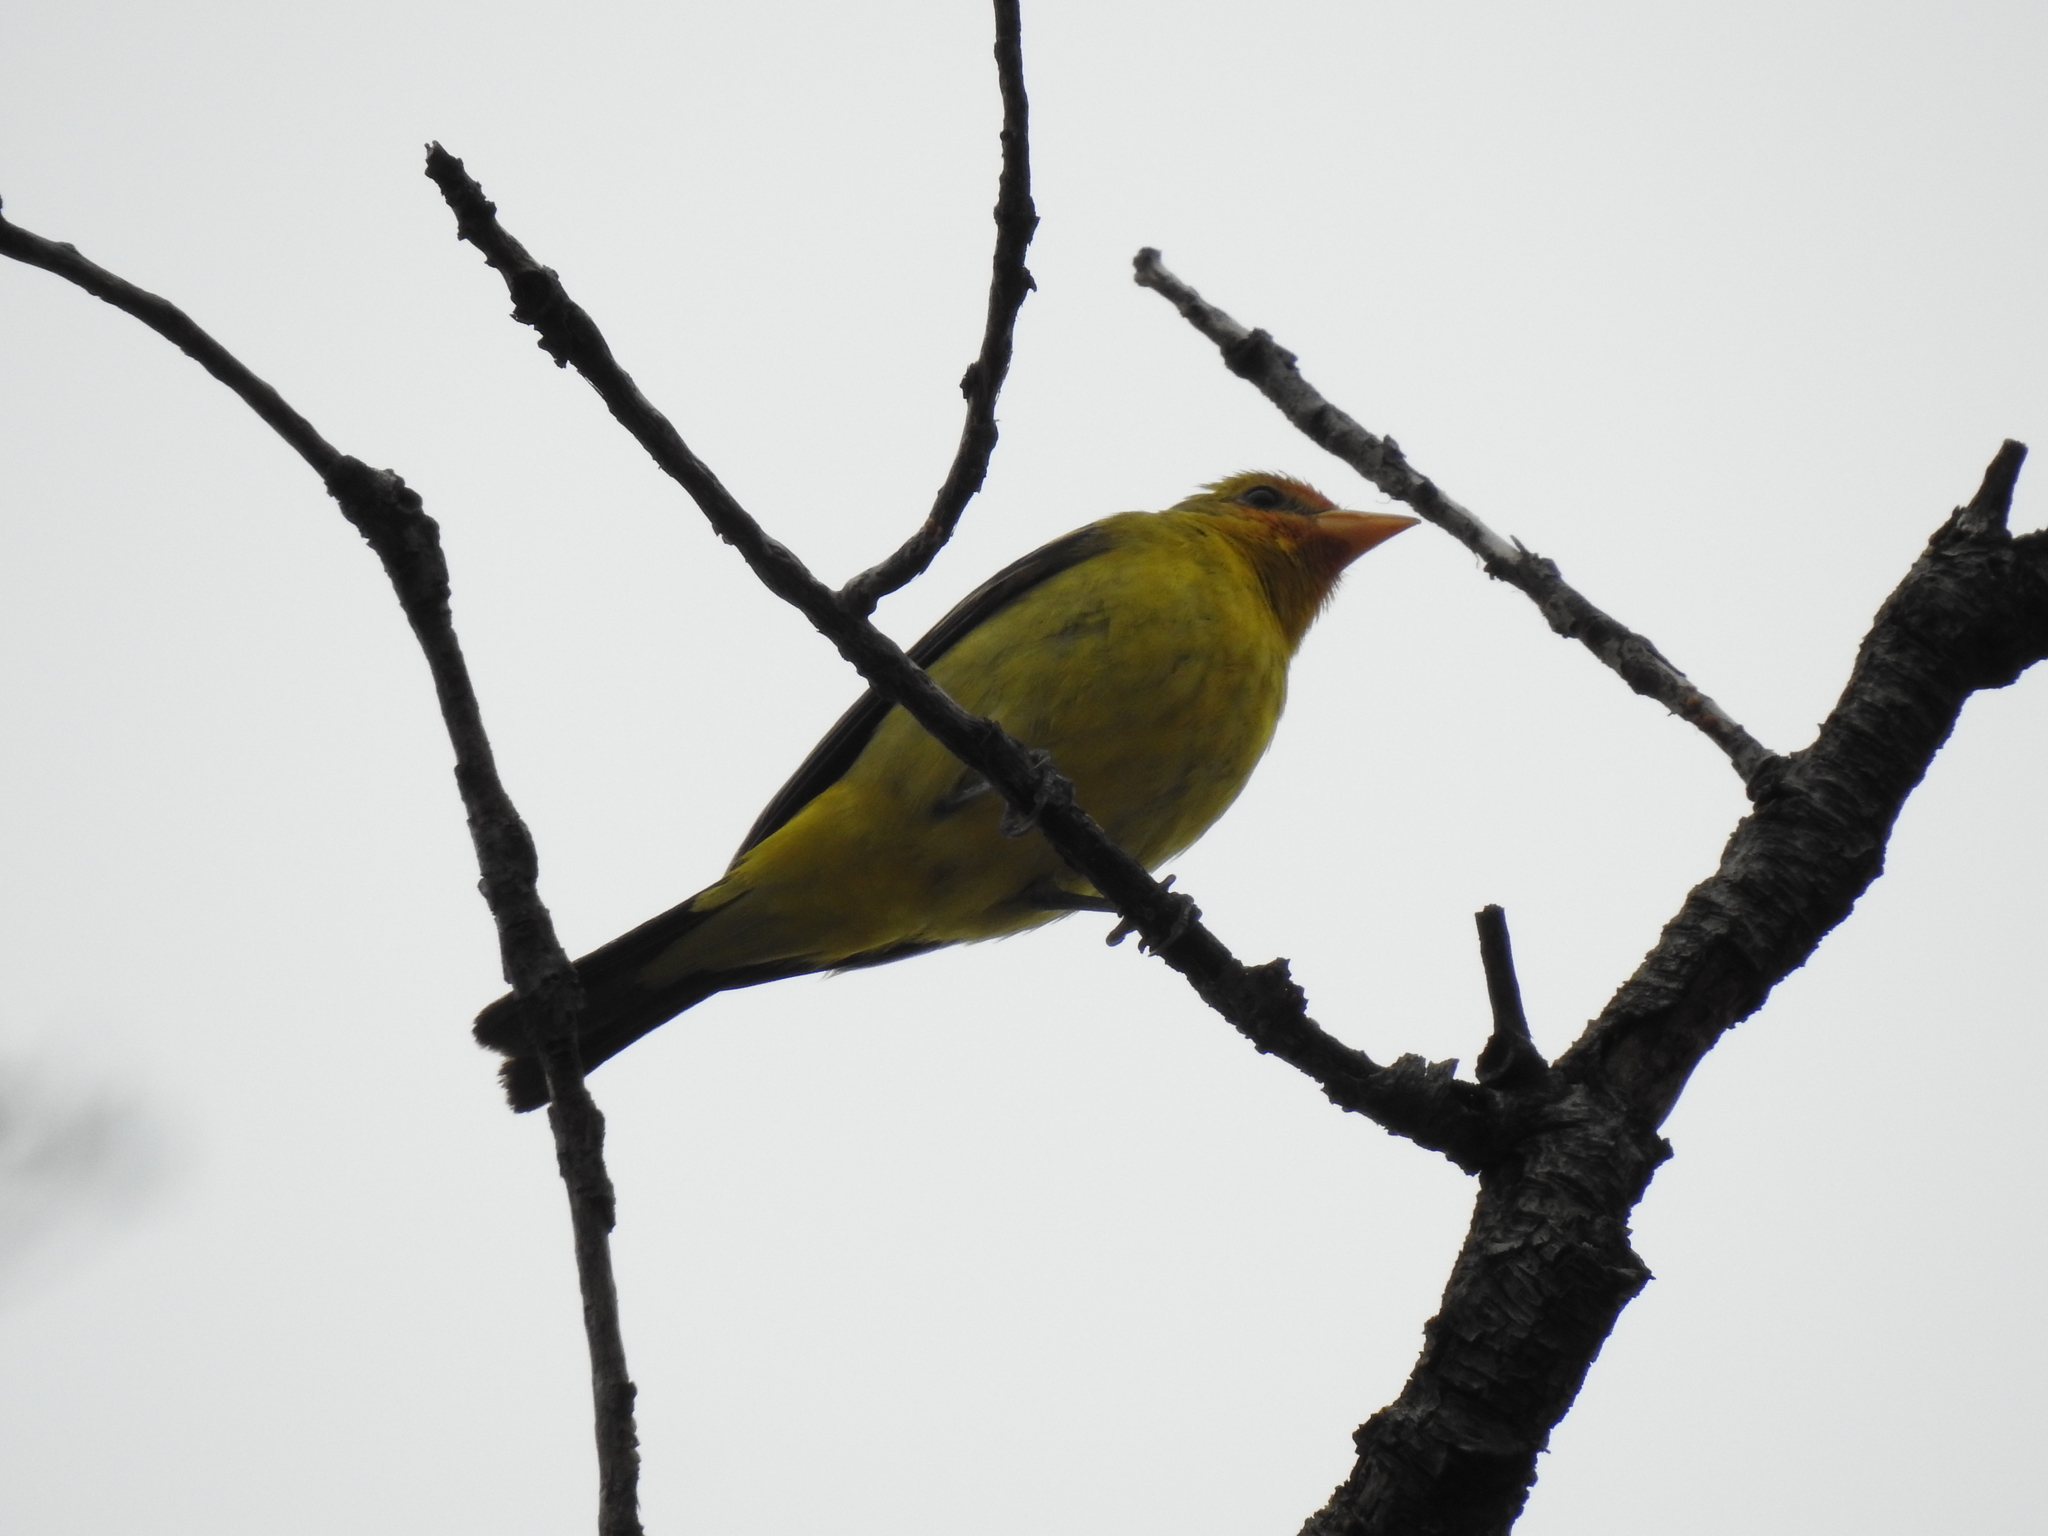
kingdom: Animalia
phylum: Chordata
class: Aves
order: Passeriformes
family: Cardinalidae
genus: Piranga
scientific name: Piranga ludoviciana
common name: Western tanager
